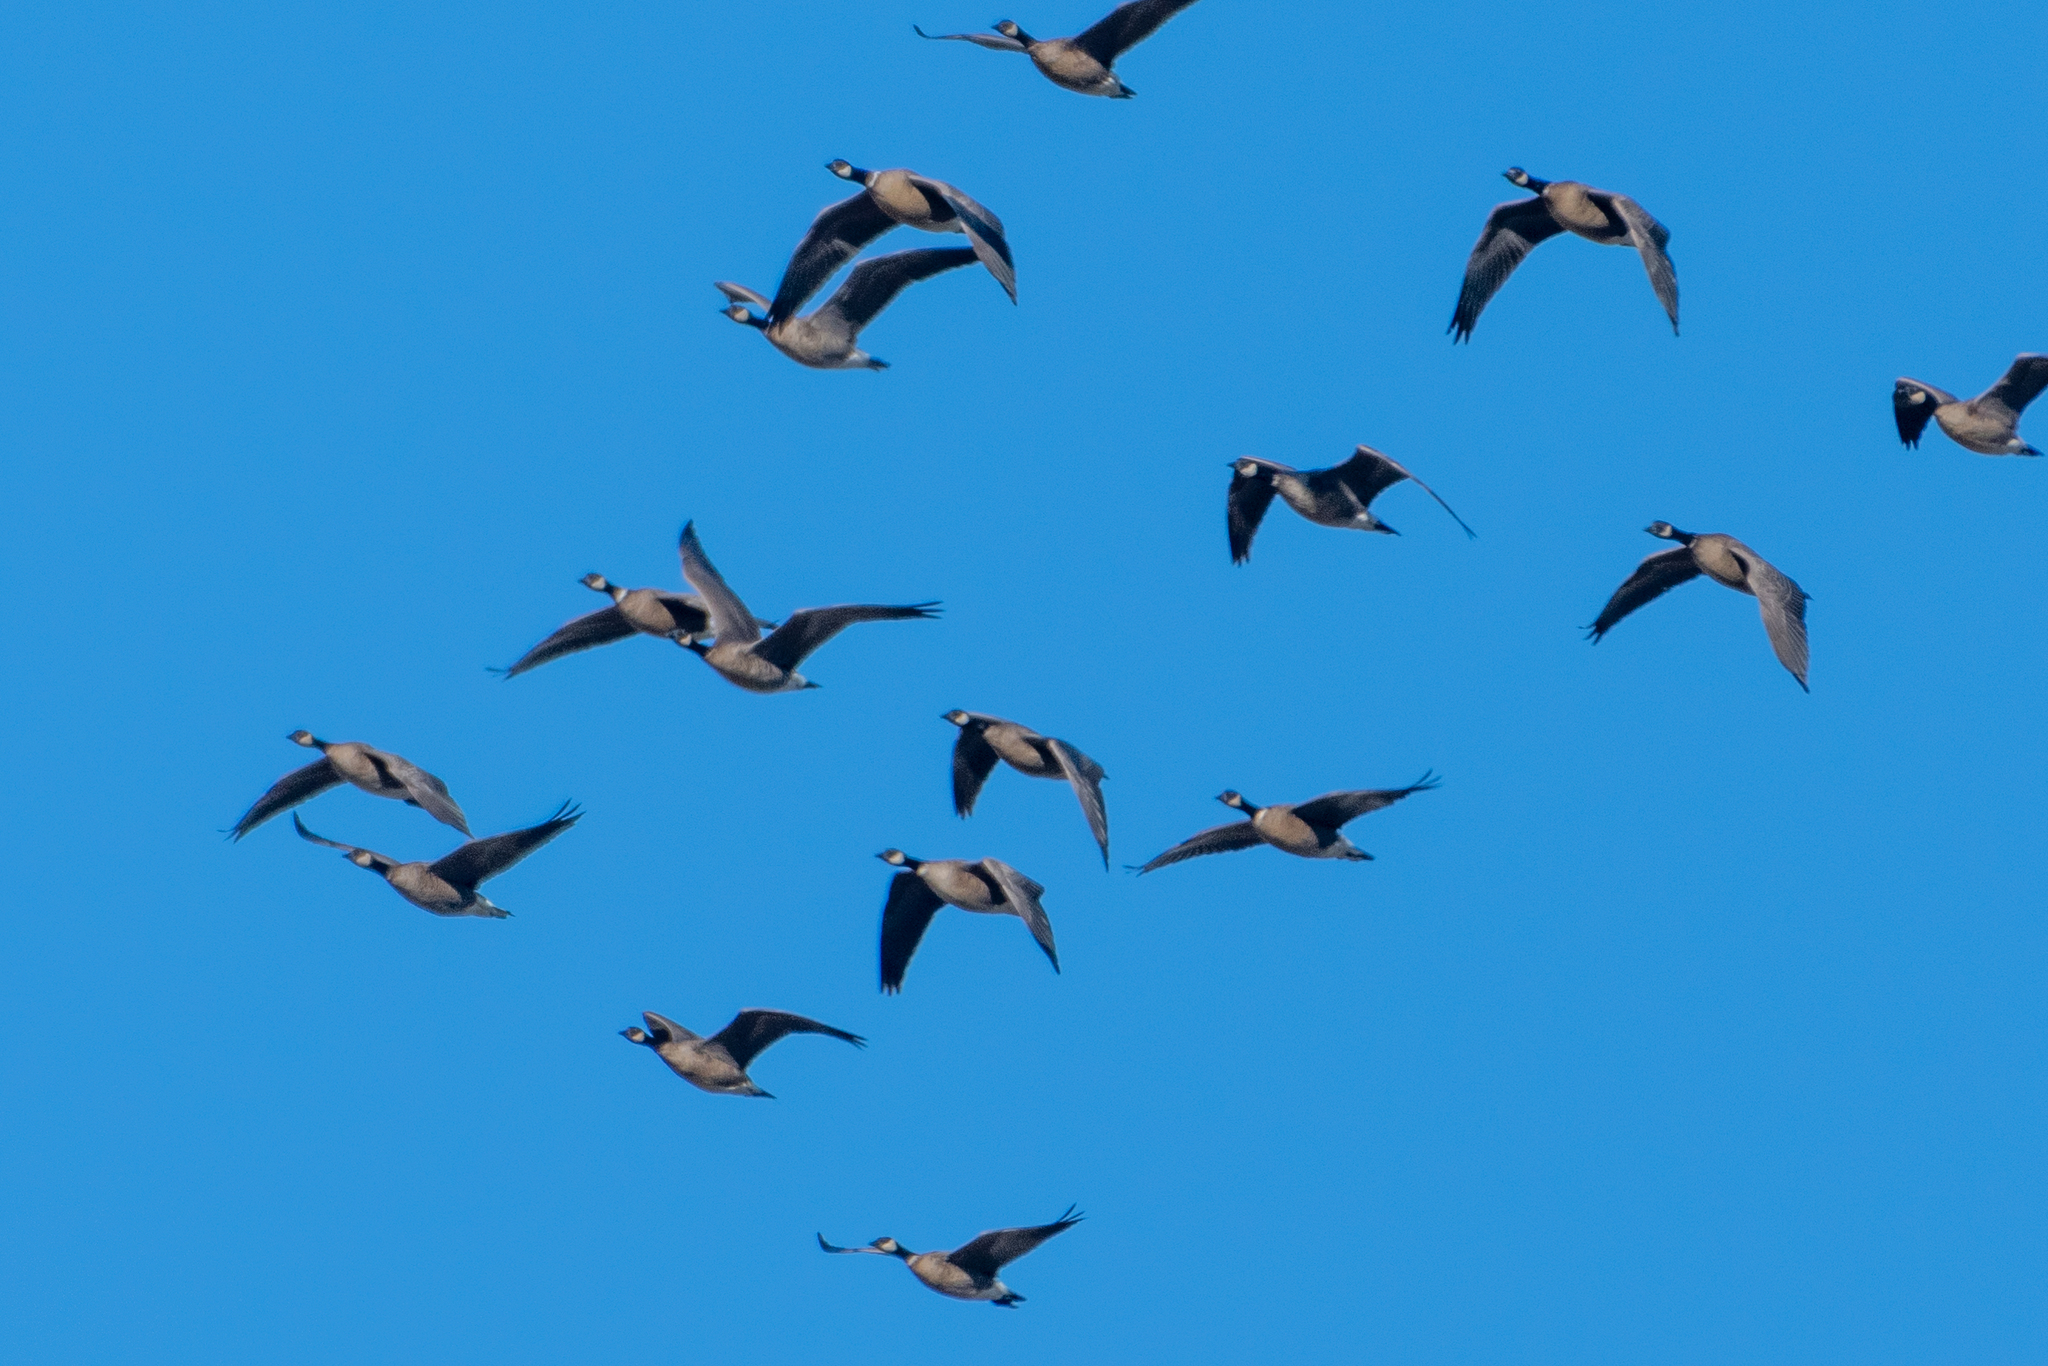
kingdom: Animalia
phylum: Chordata
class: Aves
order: Anseriformes
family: Anatidae
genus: Branta
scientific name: Branta hutchinsii
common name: Cackling goose
